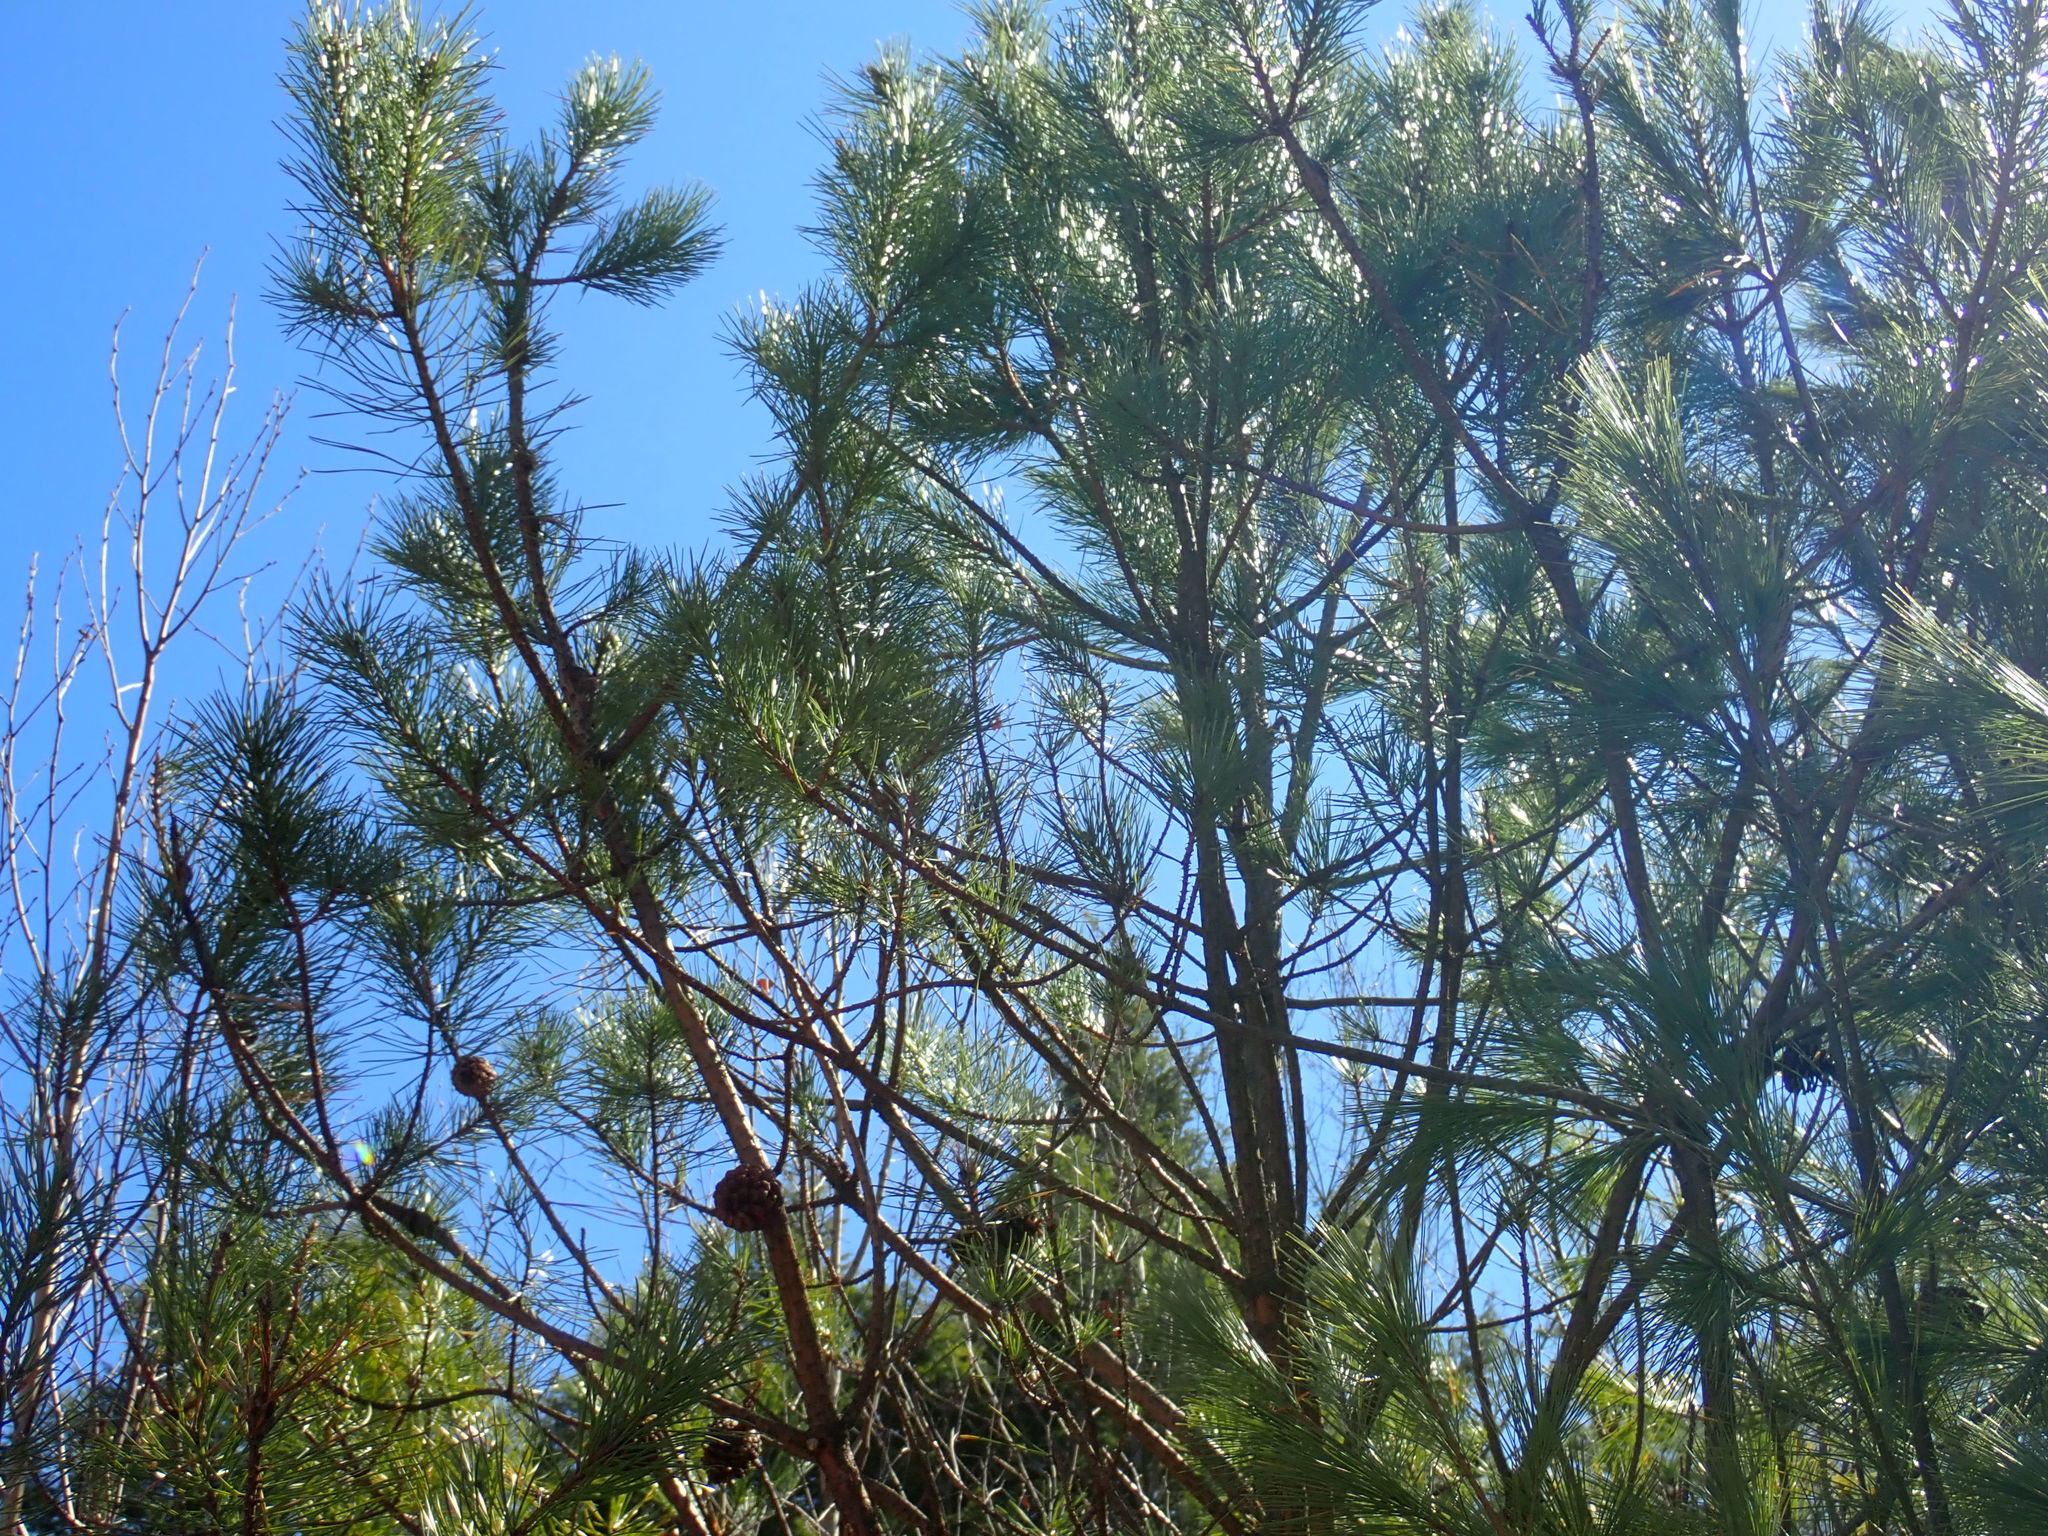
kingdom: Plantae
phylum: Tracheophyta
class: Pinopsida
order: Pinales
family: Pinaceae
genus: Pinus
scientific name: Pinus rigida
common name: Pitch pine
